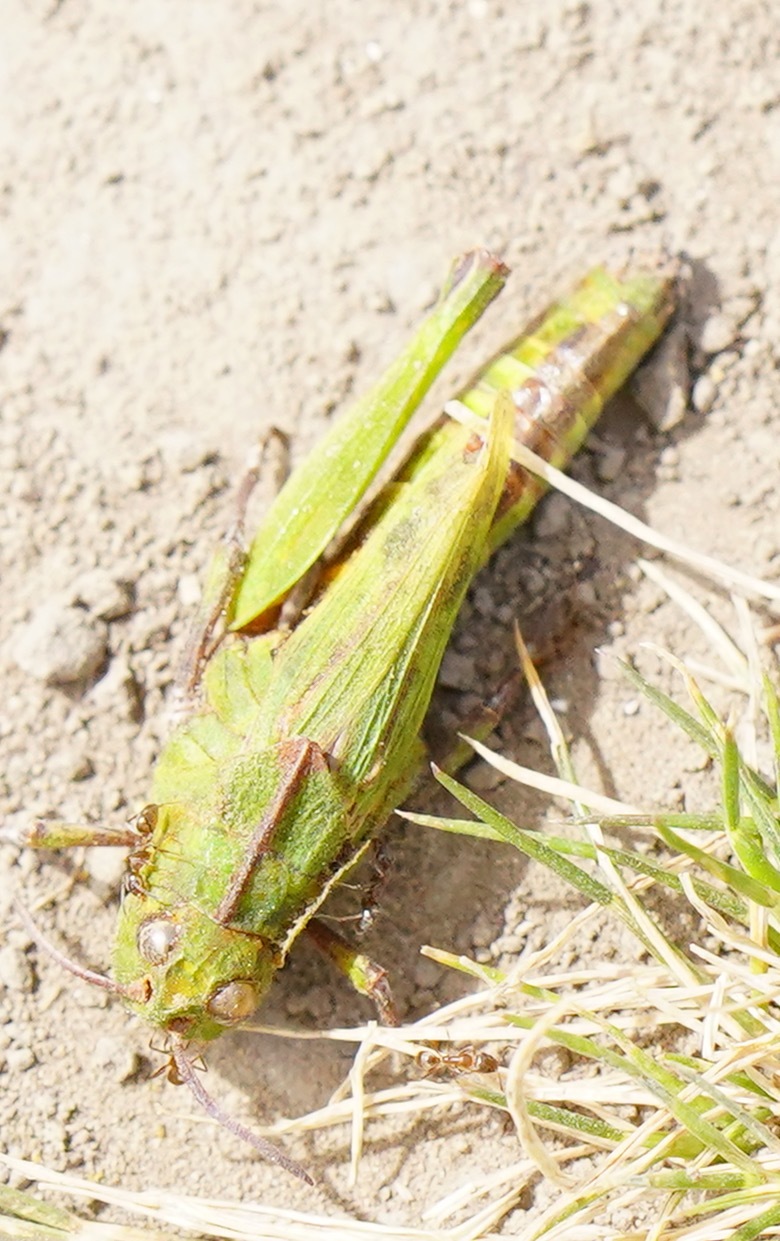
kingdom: Animalia
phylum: Arthropoda
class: Insecta
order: Orthoptera
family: Acrididae
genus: Chimarocephala
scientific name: Chimarocephala pacifica
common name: Painted meadow grasshopper
